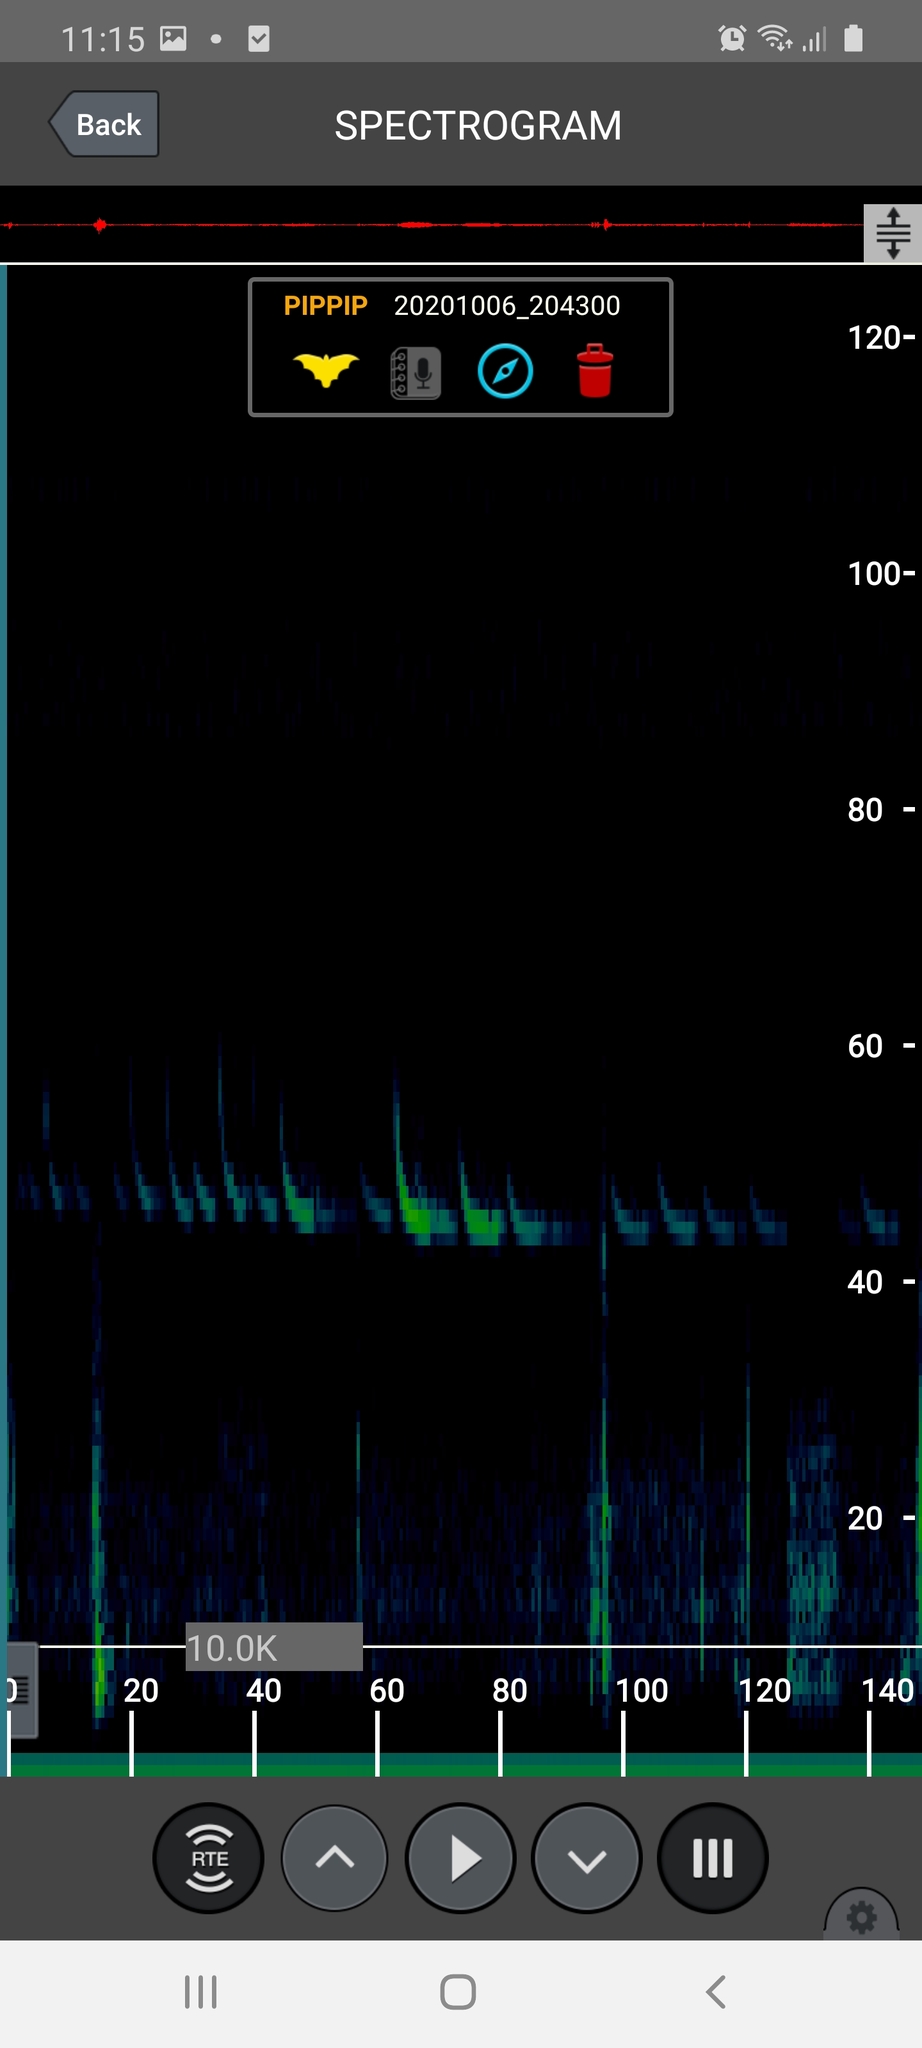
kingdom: Animalia
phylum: Chordata
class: Mammalia
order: Chiroptera
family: Vespertilionidae
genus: Pipistrellus
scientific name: Pipistrellus pipistrellus
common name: Common pipistrelle
